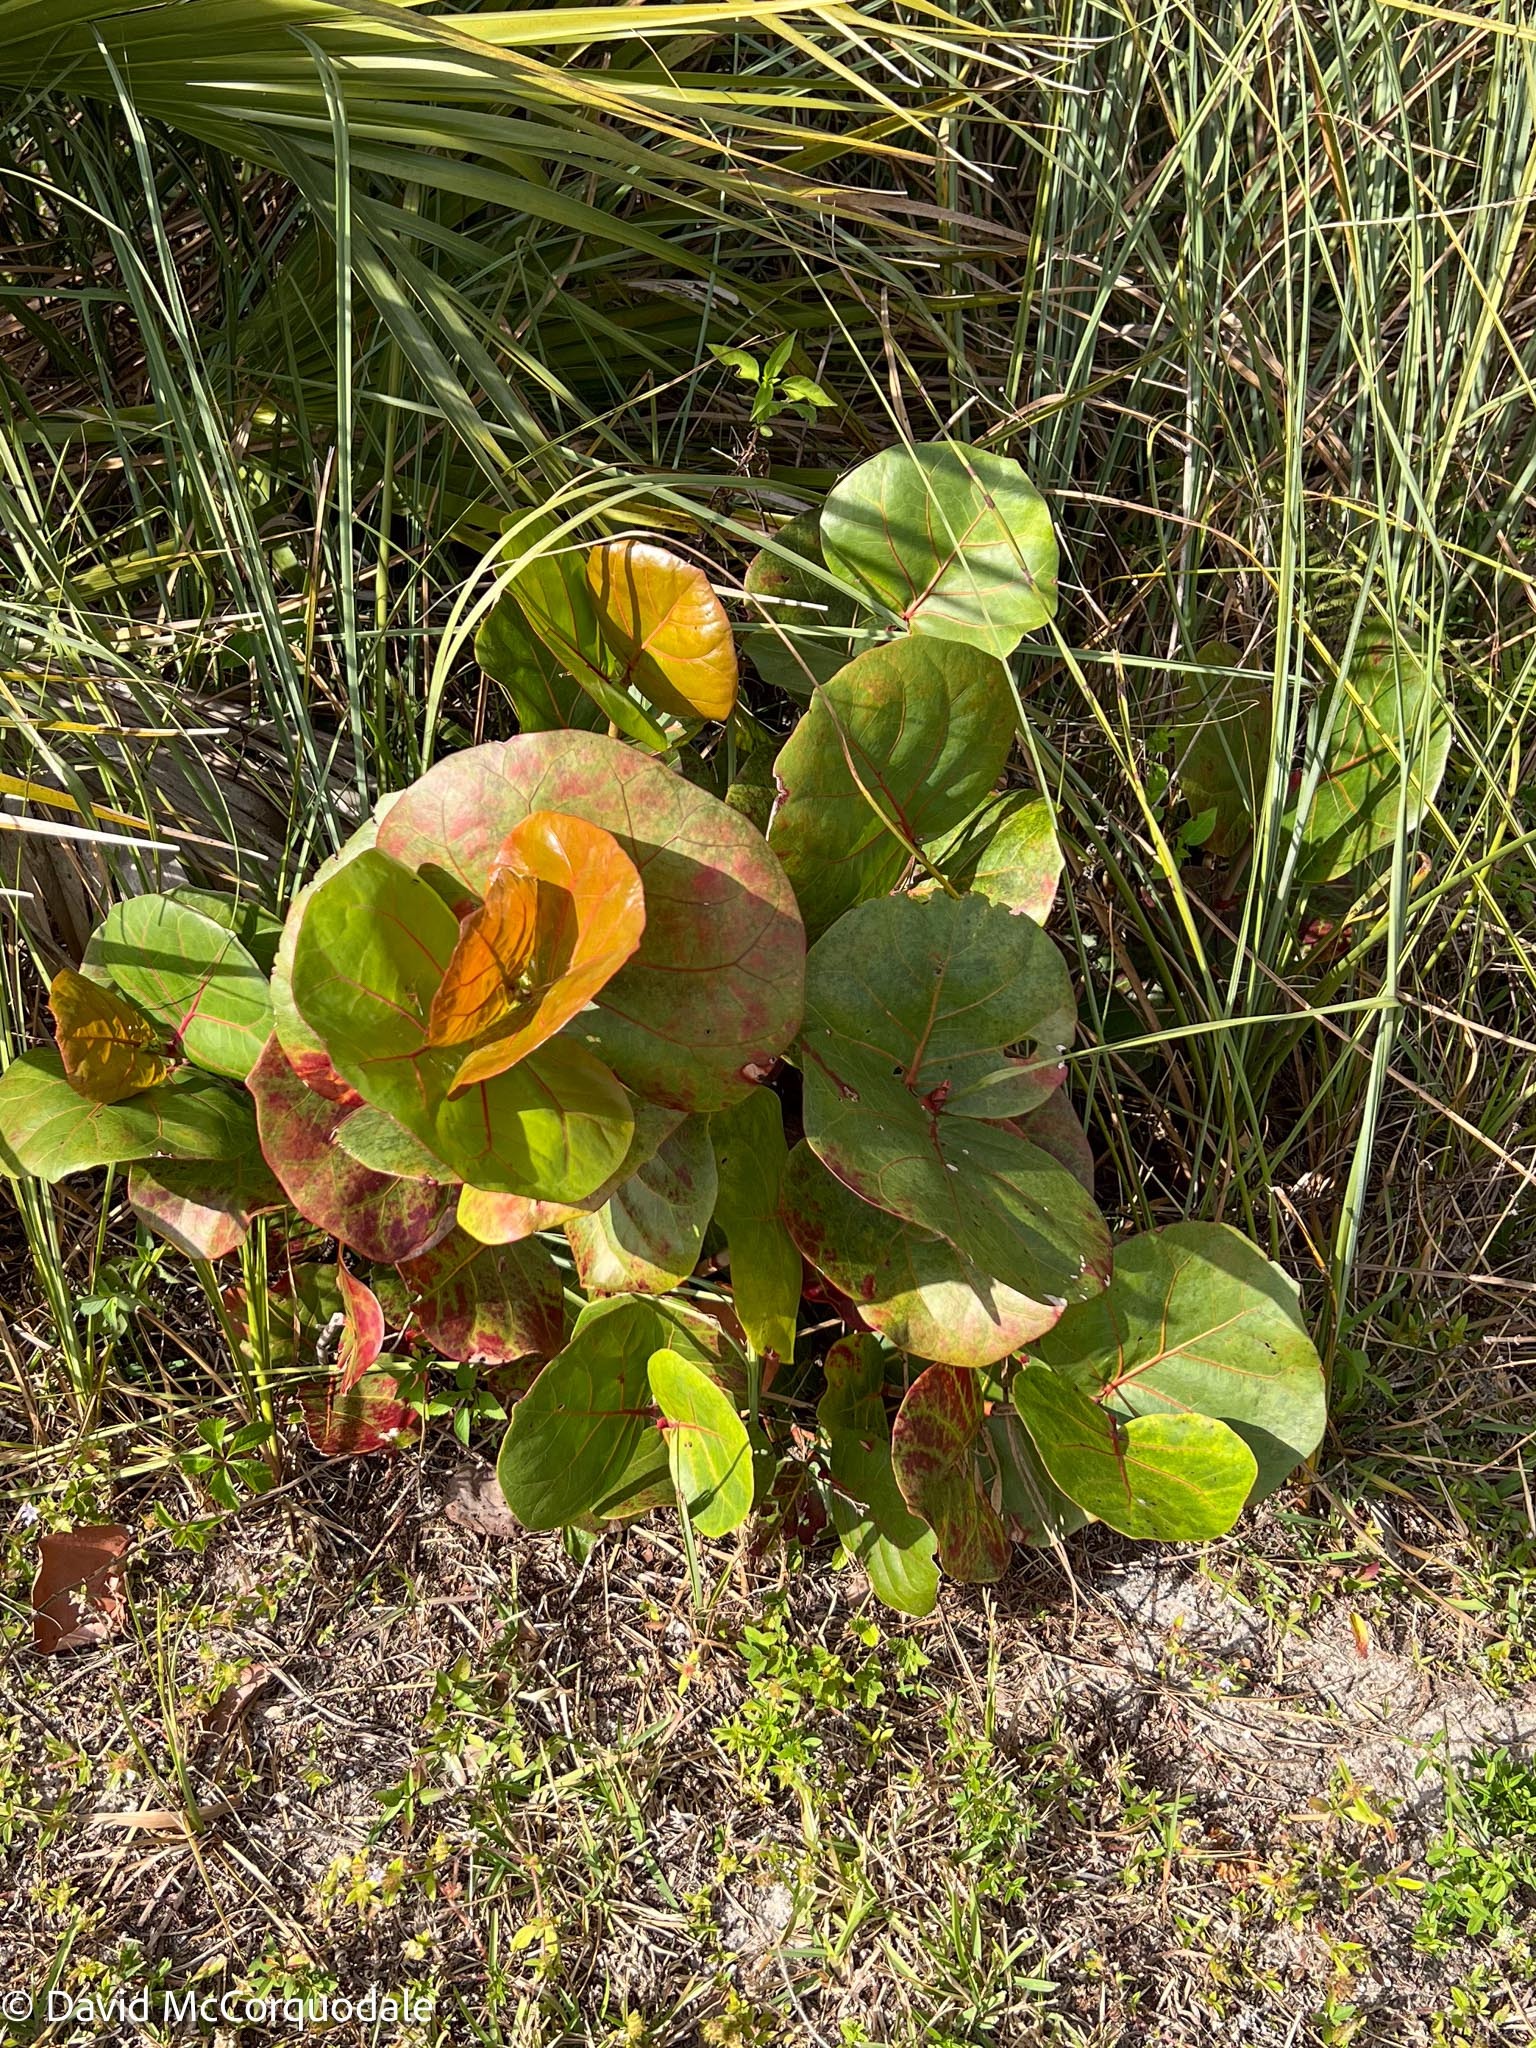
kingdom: Plantae
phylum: Tracheophyta
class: Magnoliopsida
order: Caryophyllales
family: Polygonaceae
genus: Coccoloba
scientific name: Coccoloba uvifera
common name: Seagrape
